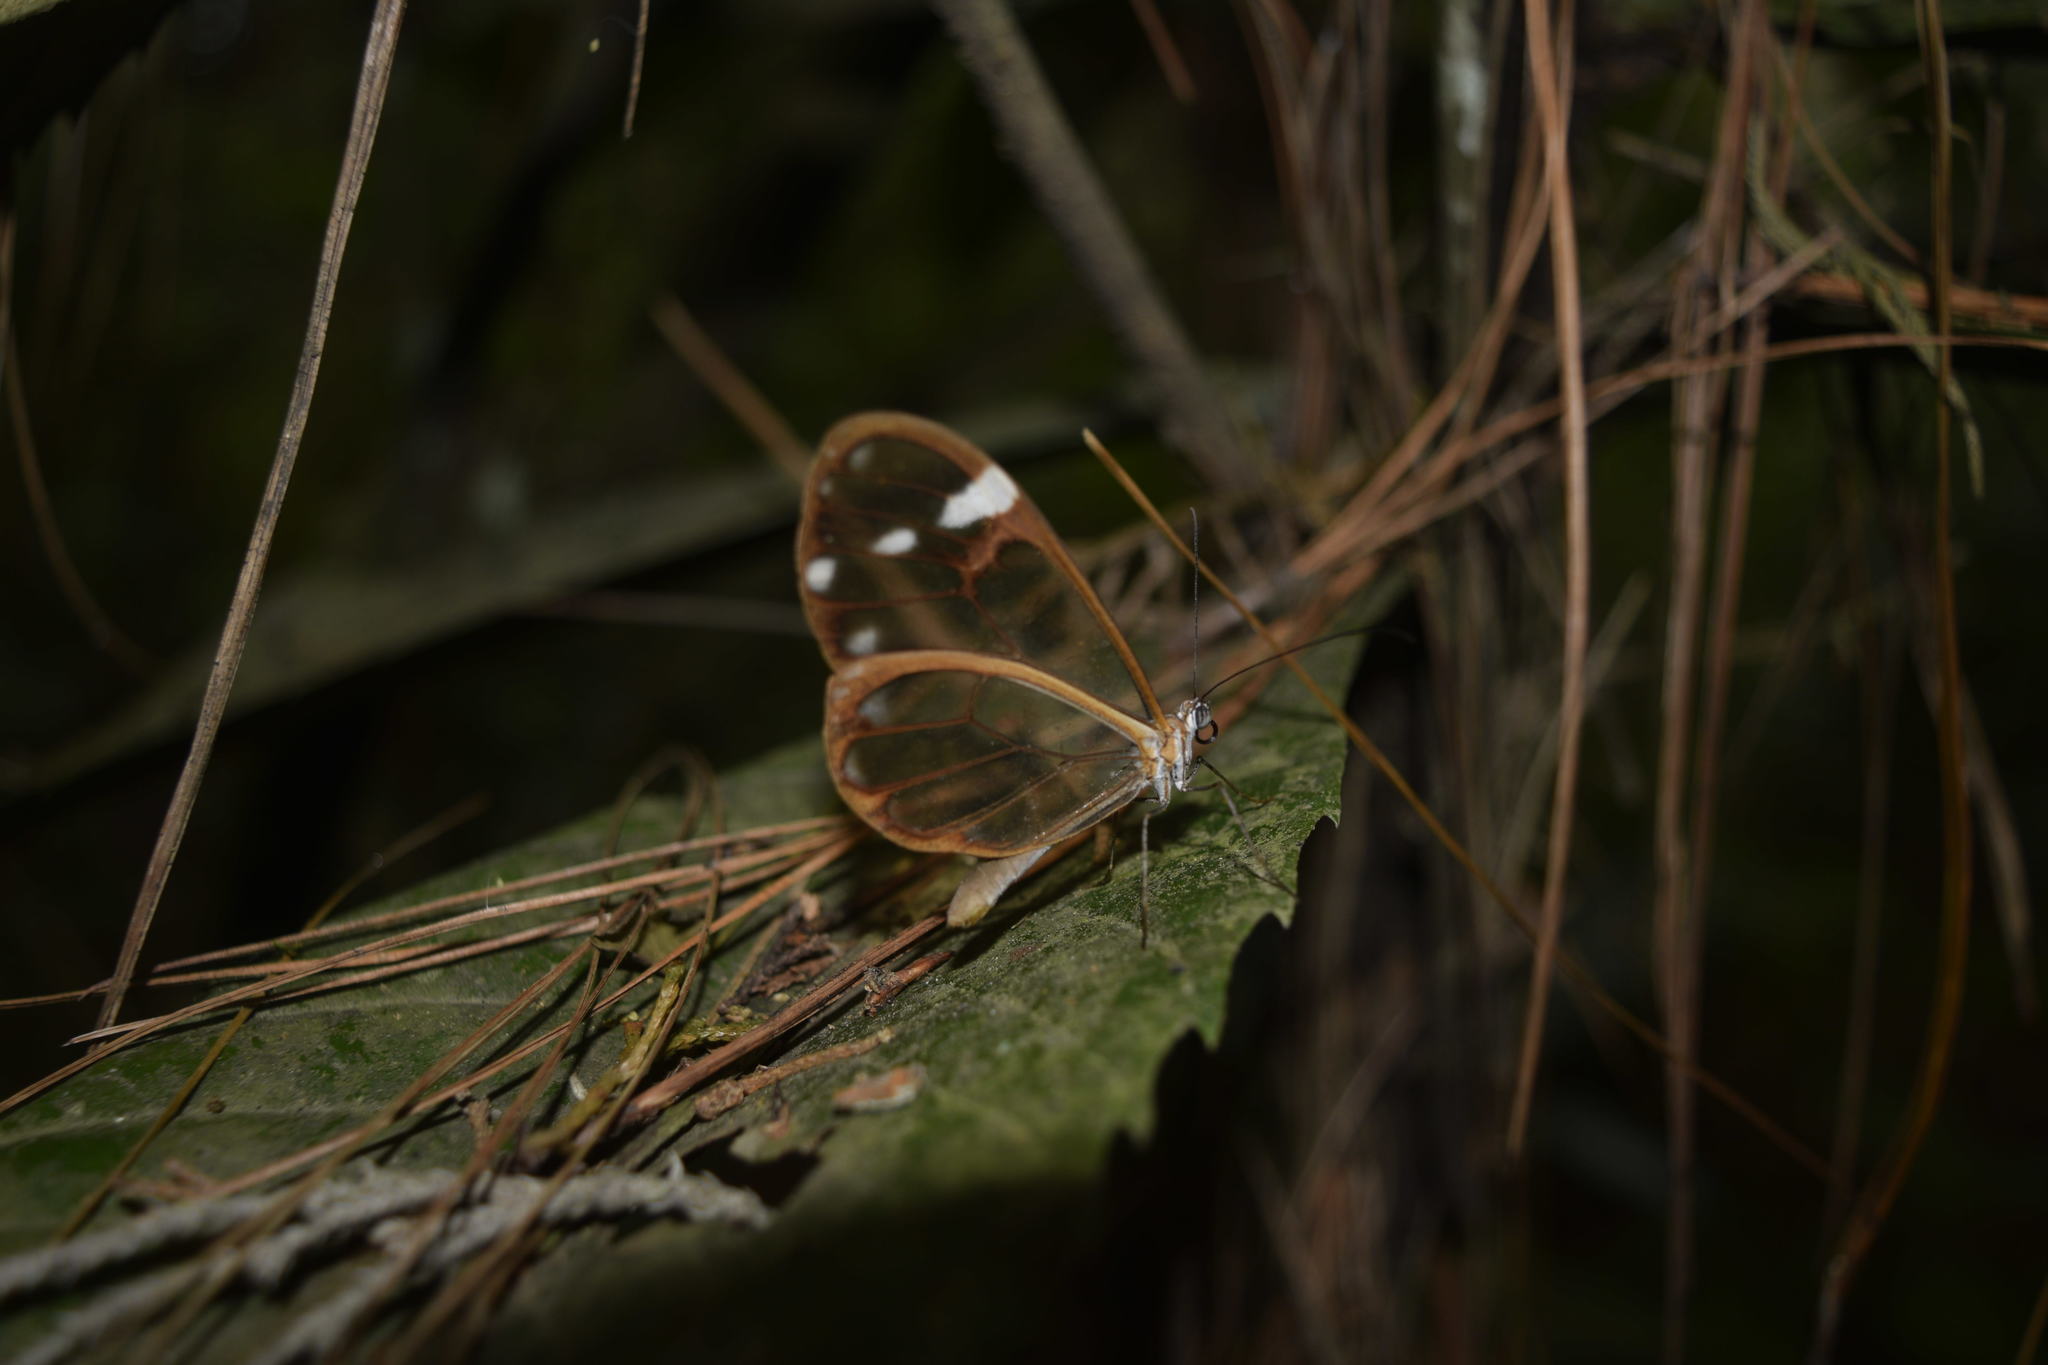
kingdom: Animalia
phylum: Arthropoda
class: Insecta
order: Lepidoptera
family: Nymphalidae
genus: Greta
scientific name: Greta annette
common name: White-spotted clearwing
